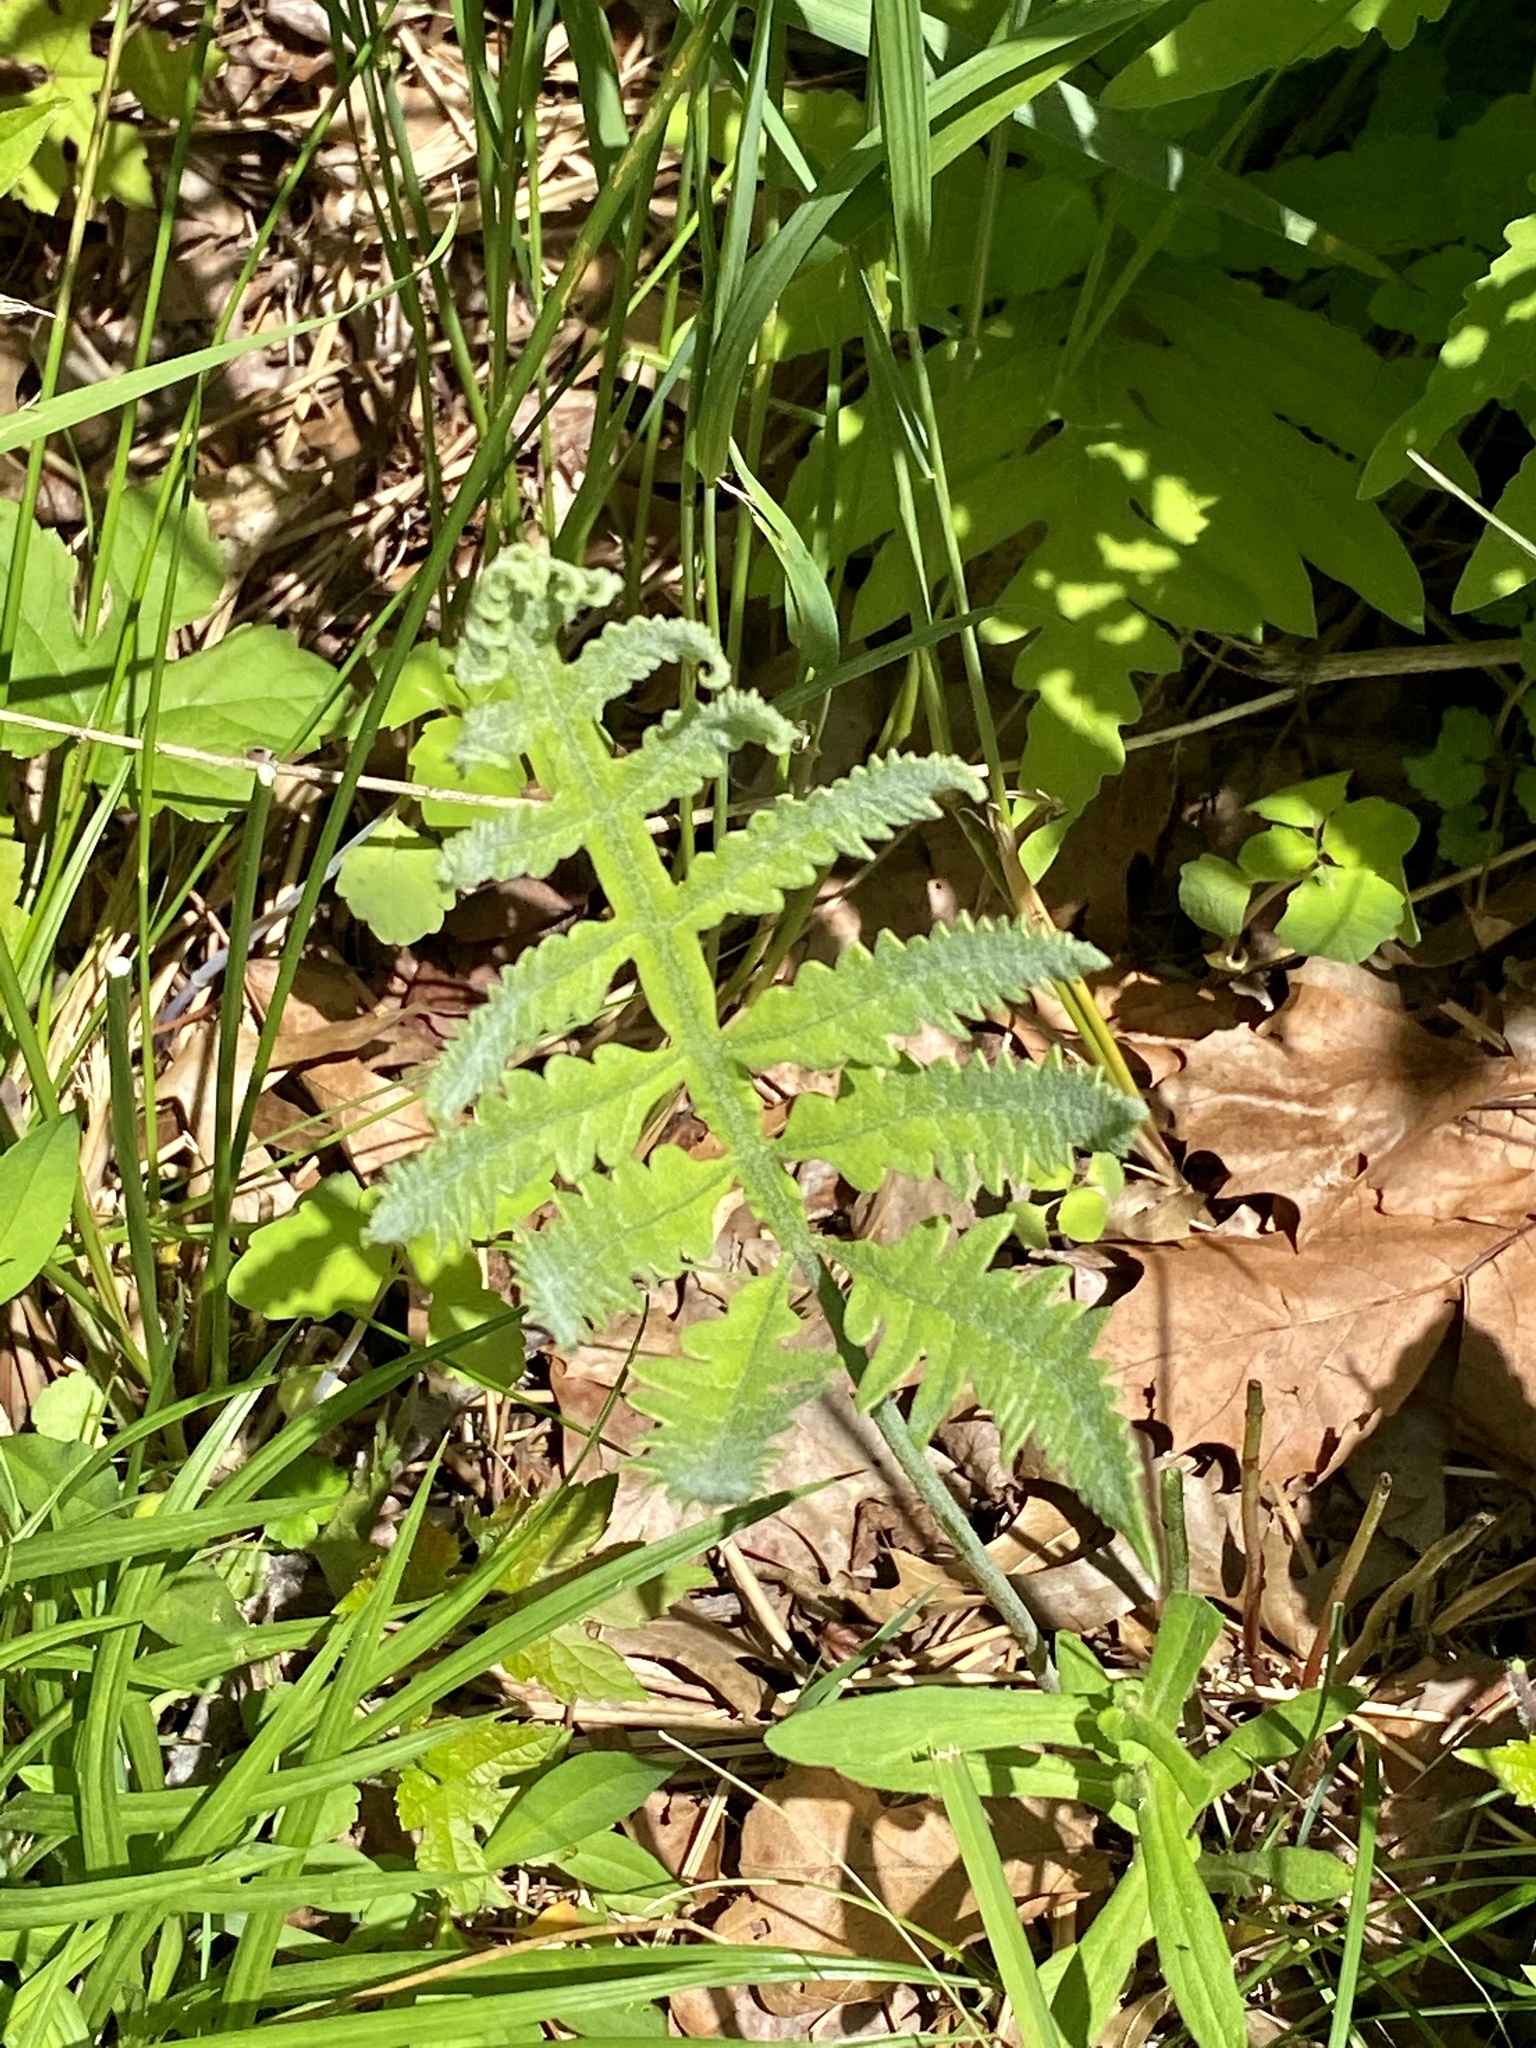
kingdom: Plantae
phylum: Tracheophyta
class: Polypodiopsida
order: Polypodiales
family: Onocleaceae
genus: Onoclea
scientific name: Onoclea sensibilis
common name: Sensitive fern
